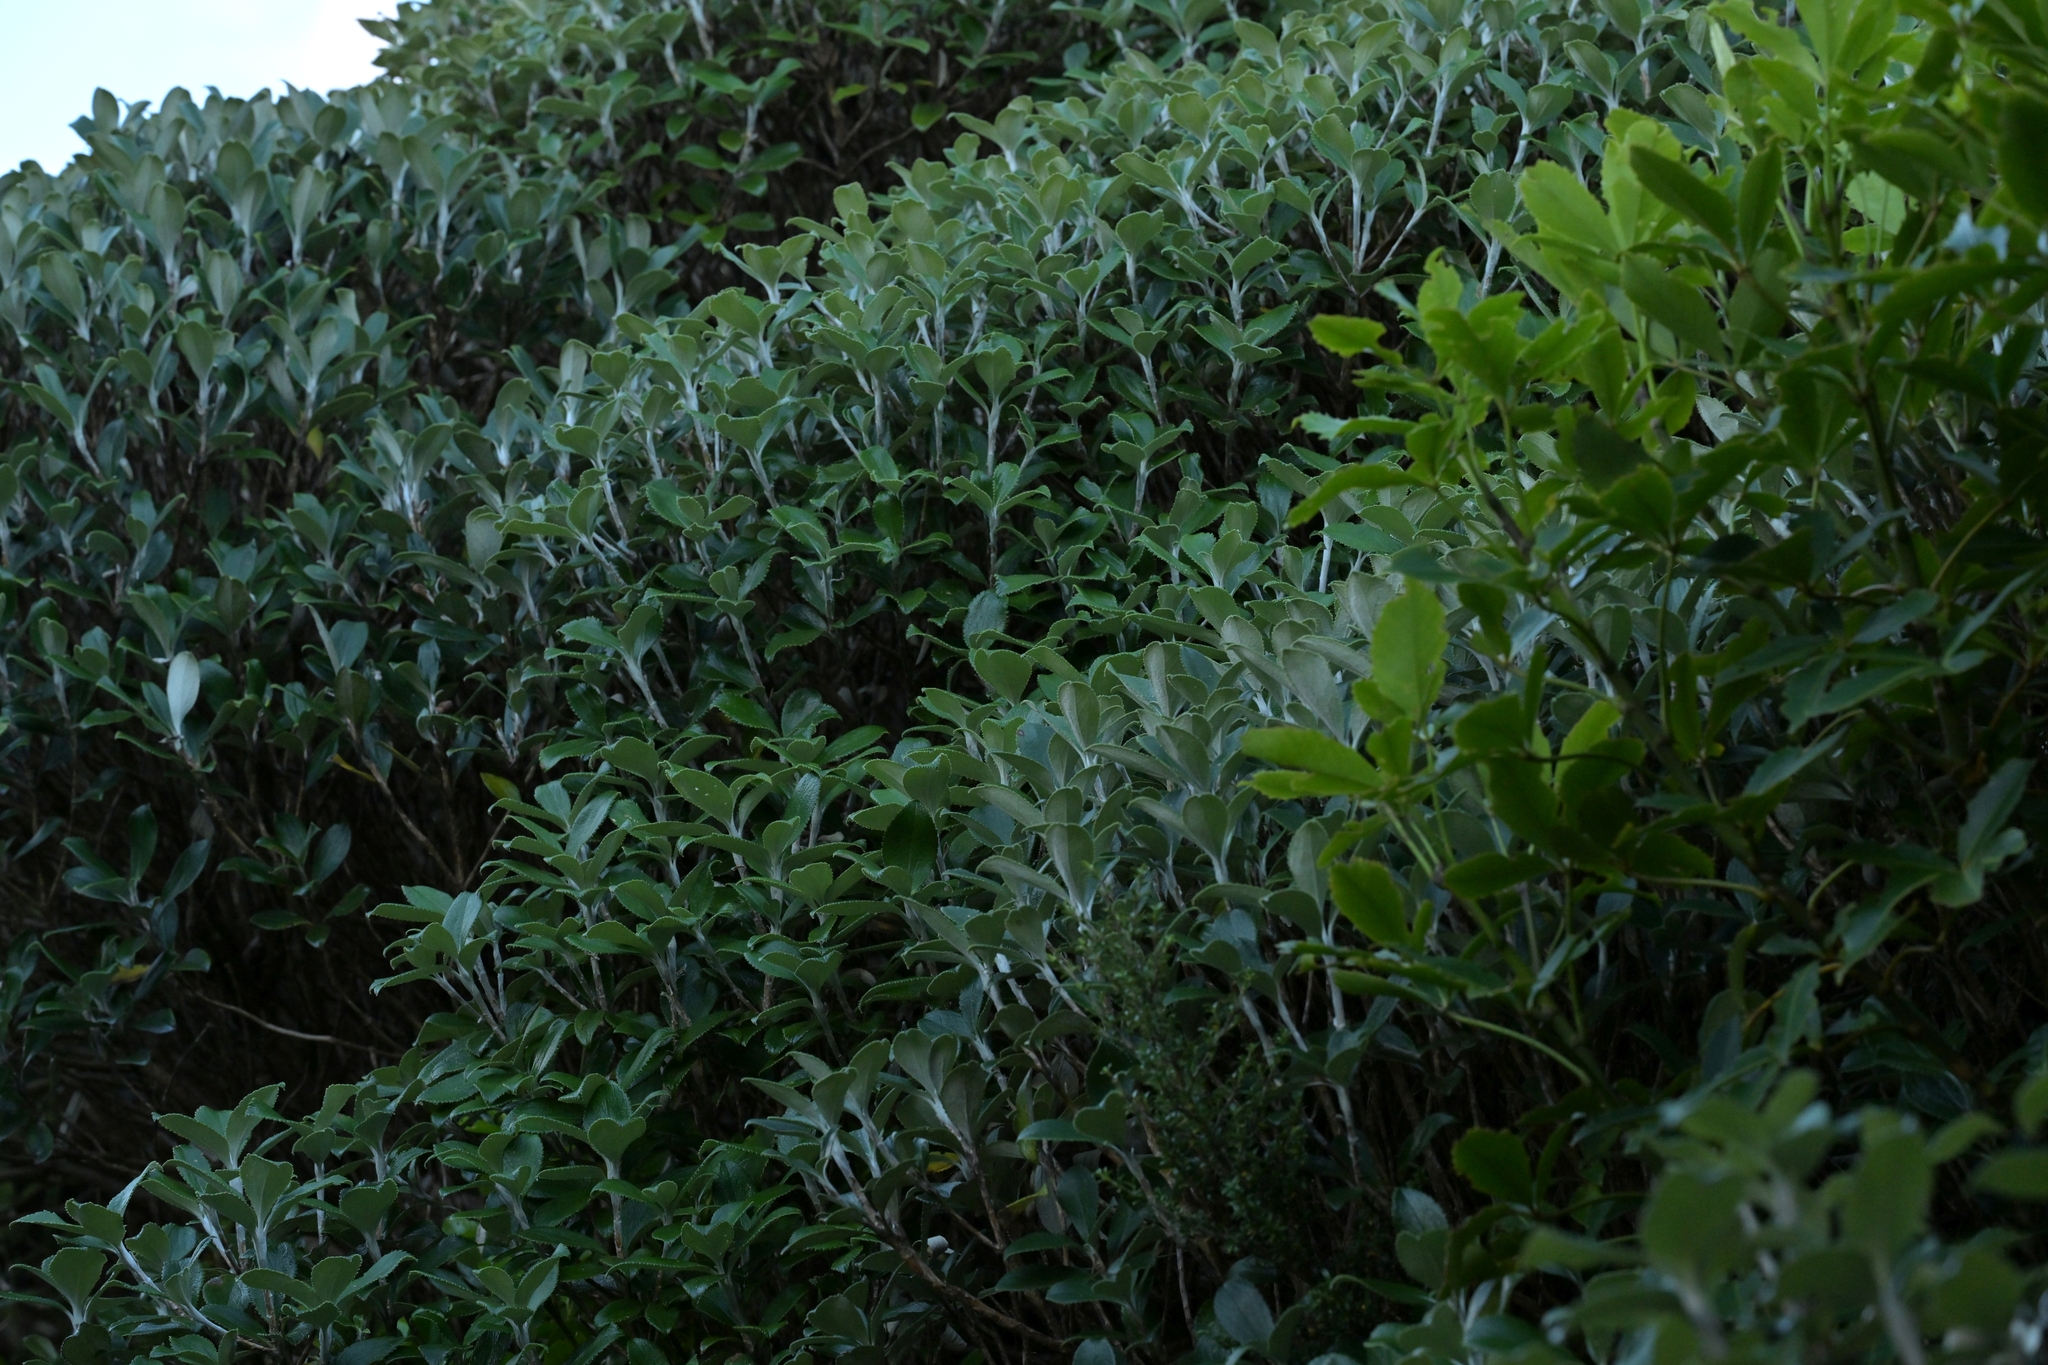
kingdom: Plantae
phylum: Tracheophyta
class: Magnoliopsida
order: Asterales
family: Asteraceae
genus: Macrolearia
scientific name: Macrolearia colensoi
